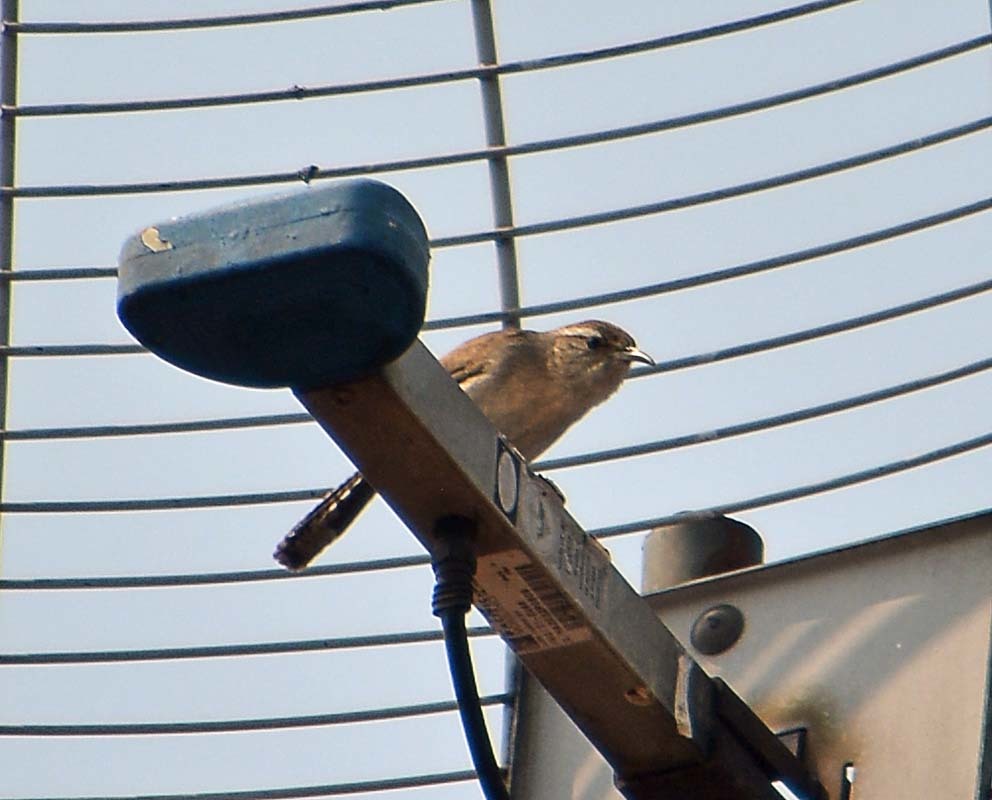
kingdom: Animalia
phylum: Chordata
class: Aves
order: Passeriformes
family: Troglodytidae
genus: Thryomanes
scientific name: Thryomanes bewickii
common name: Bewick's wren
